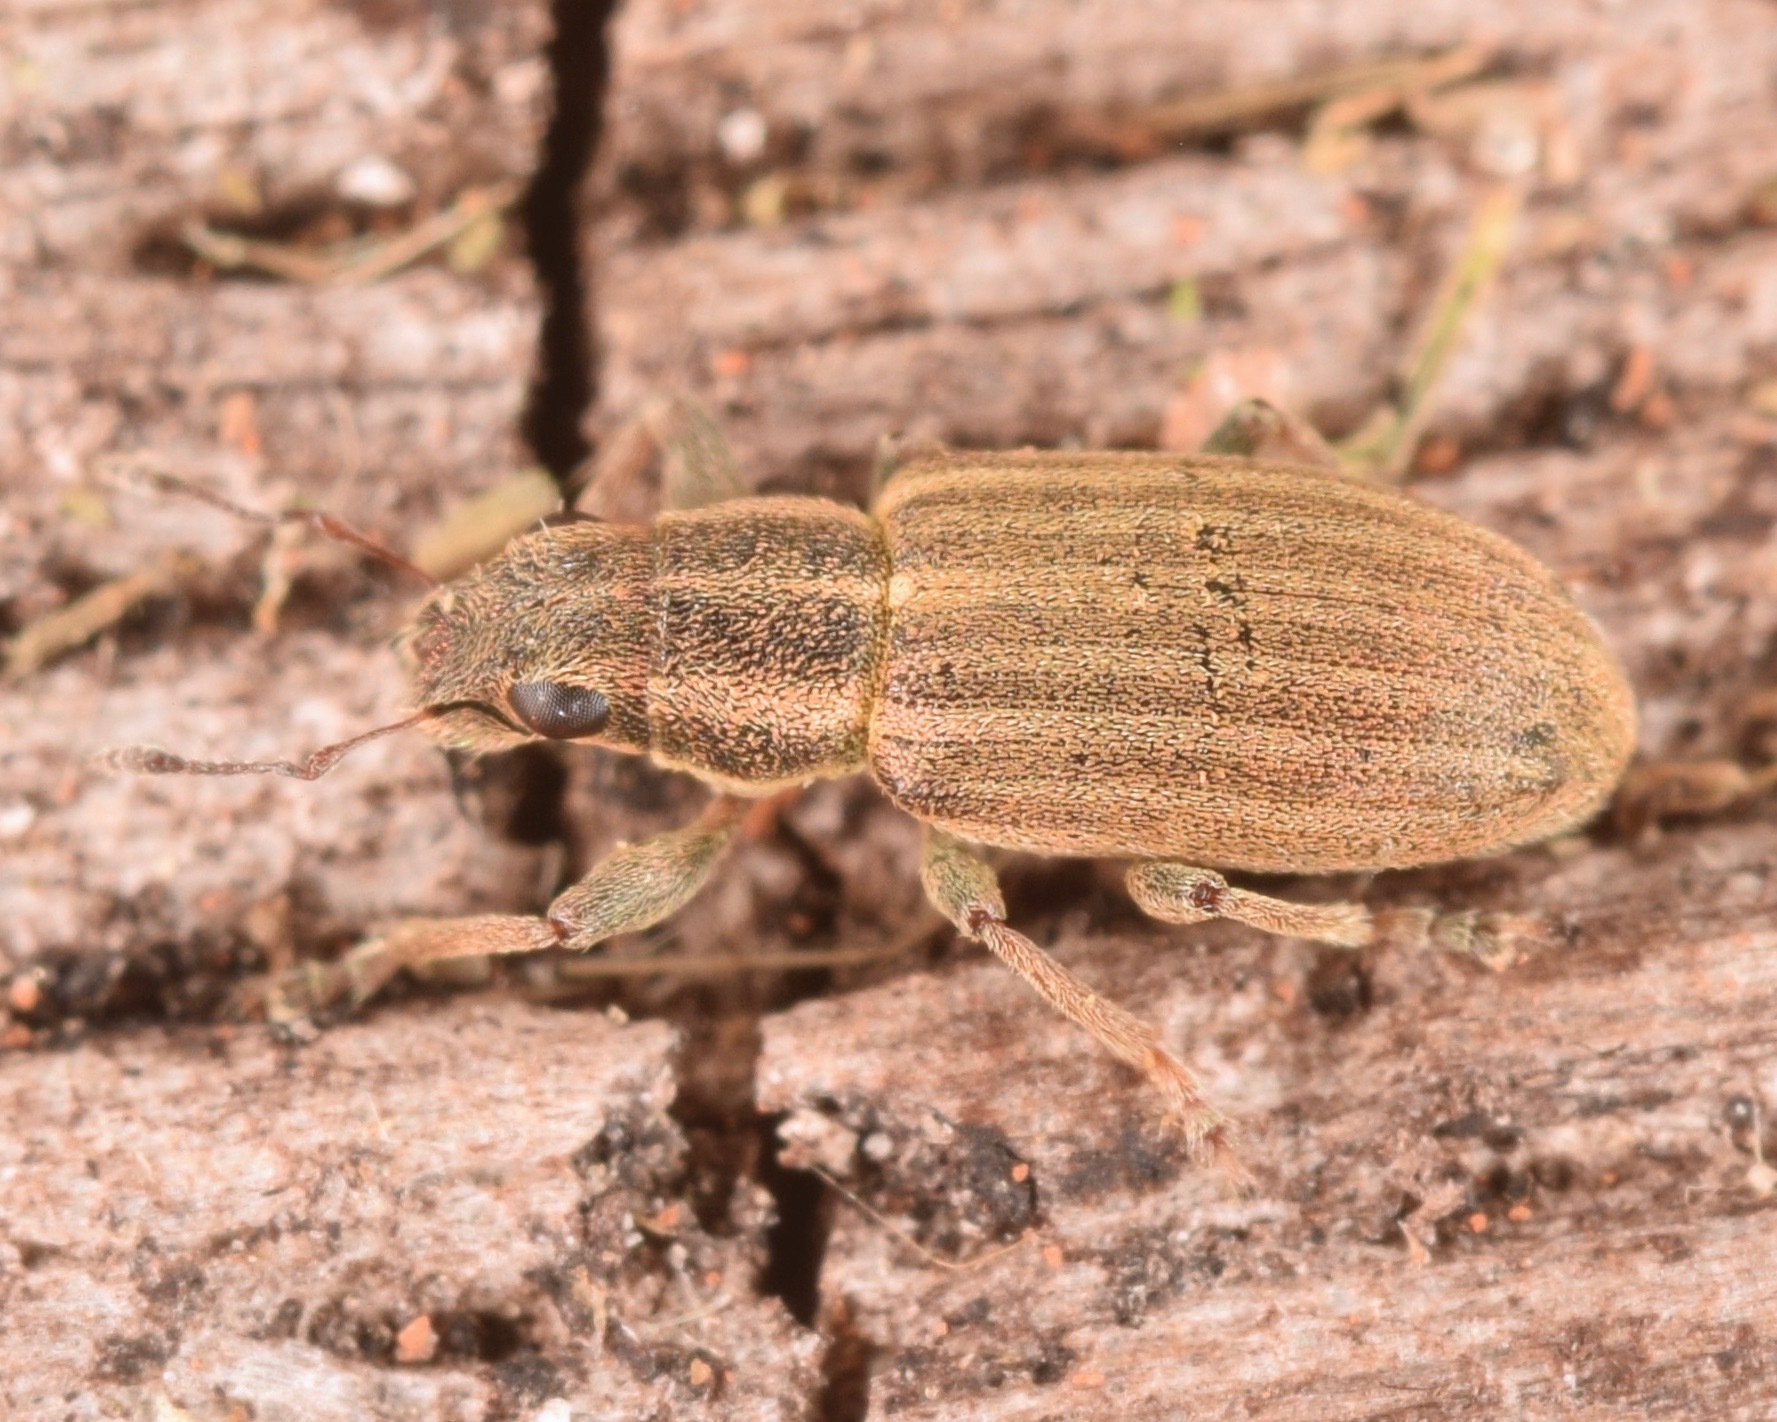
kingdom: Animalia
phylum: Arthropoda
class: Insecta
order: Coleoptera
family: Curculionidae
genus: Sitona
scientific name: Sitona lineatus
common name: Weevil
